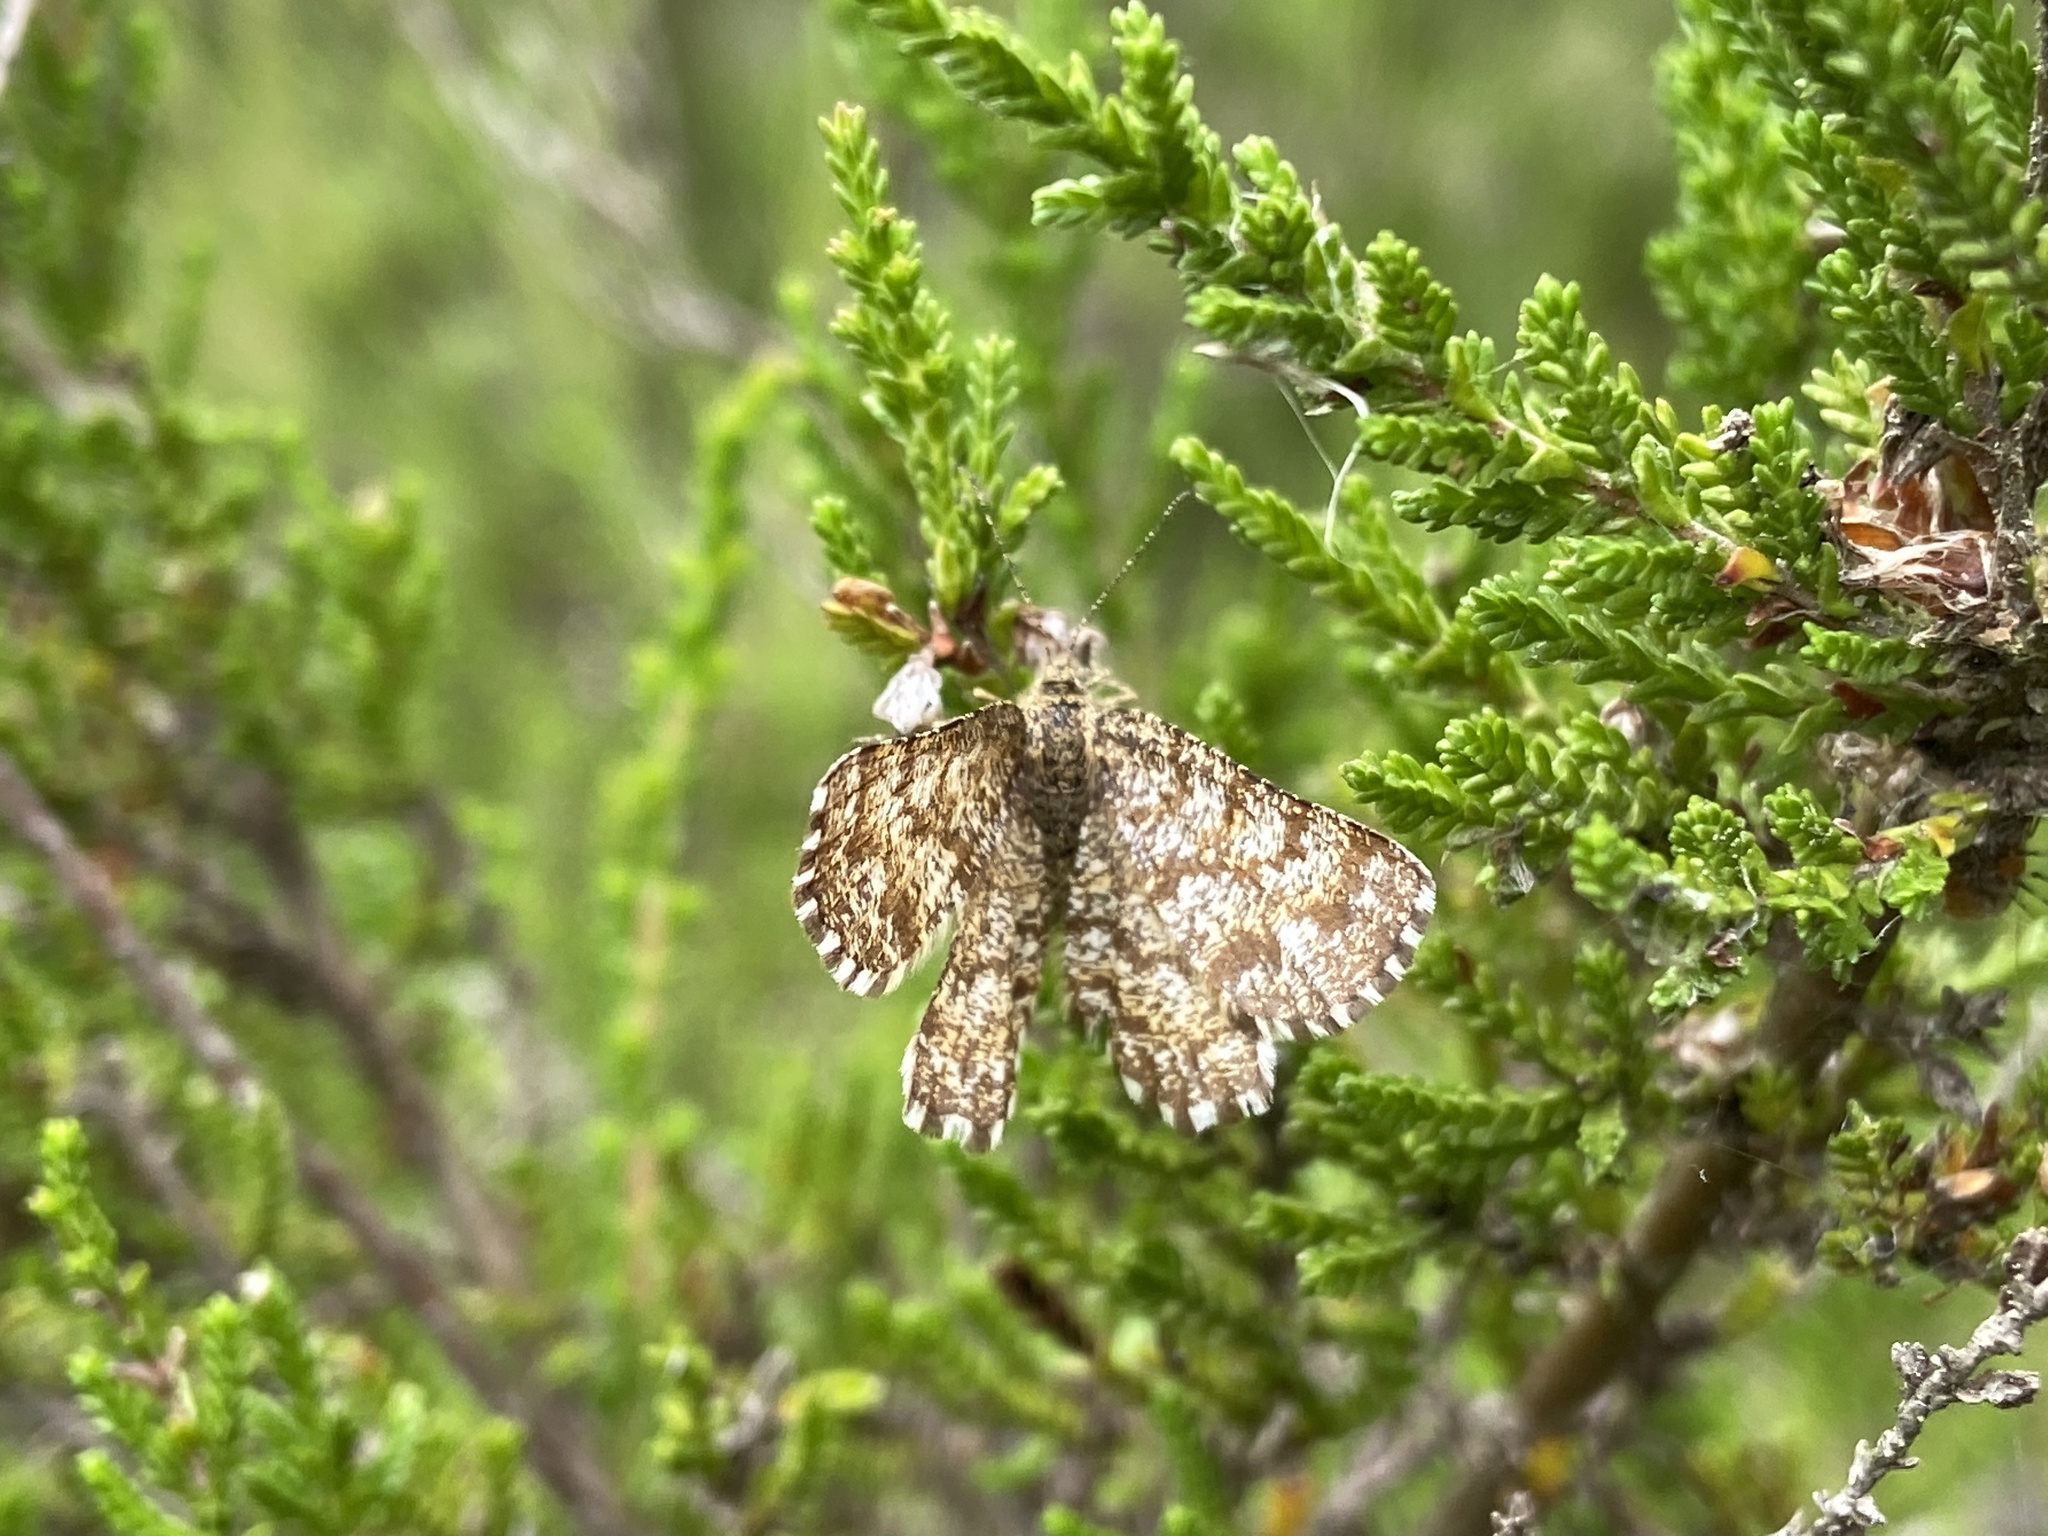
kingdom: Animalia
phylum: Arthropoda
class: Insecta
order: Lepidoptera
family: Geometridae
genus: Ematurga
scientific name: Ematurga atomaria
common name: Common heath
